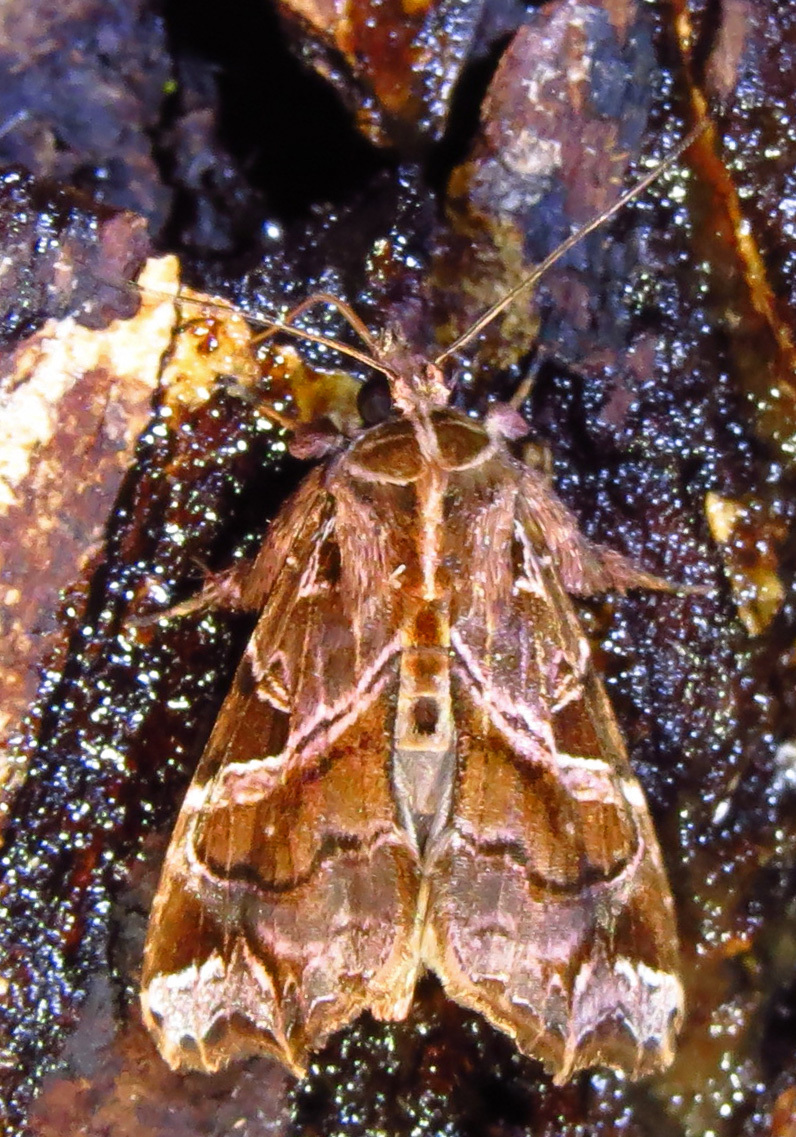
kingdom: Animalia
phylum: Arthropoda
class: Insecta
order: Lepidoptera
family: Noctuidae
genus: Callopistria
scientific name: Callopistria floridensis
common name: Florida fern moth
